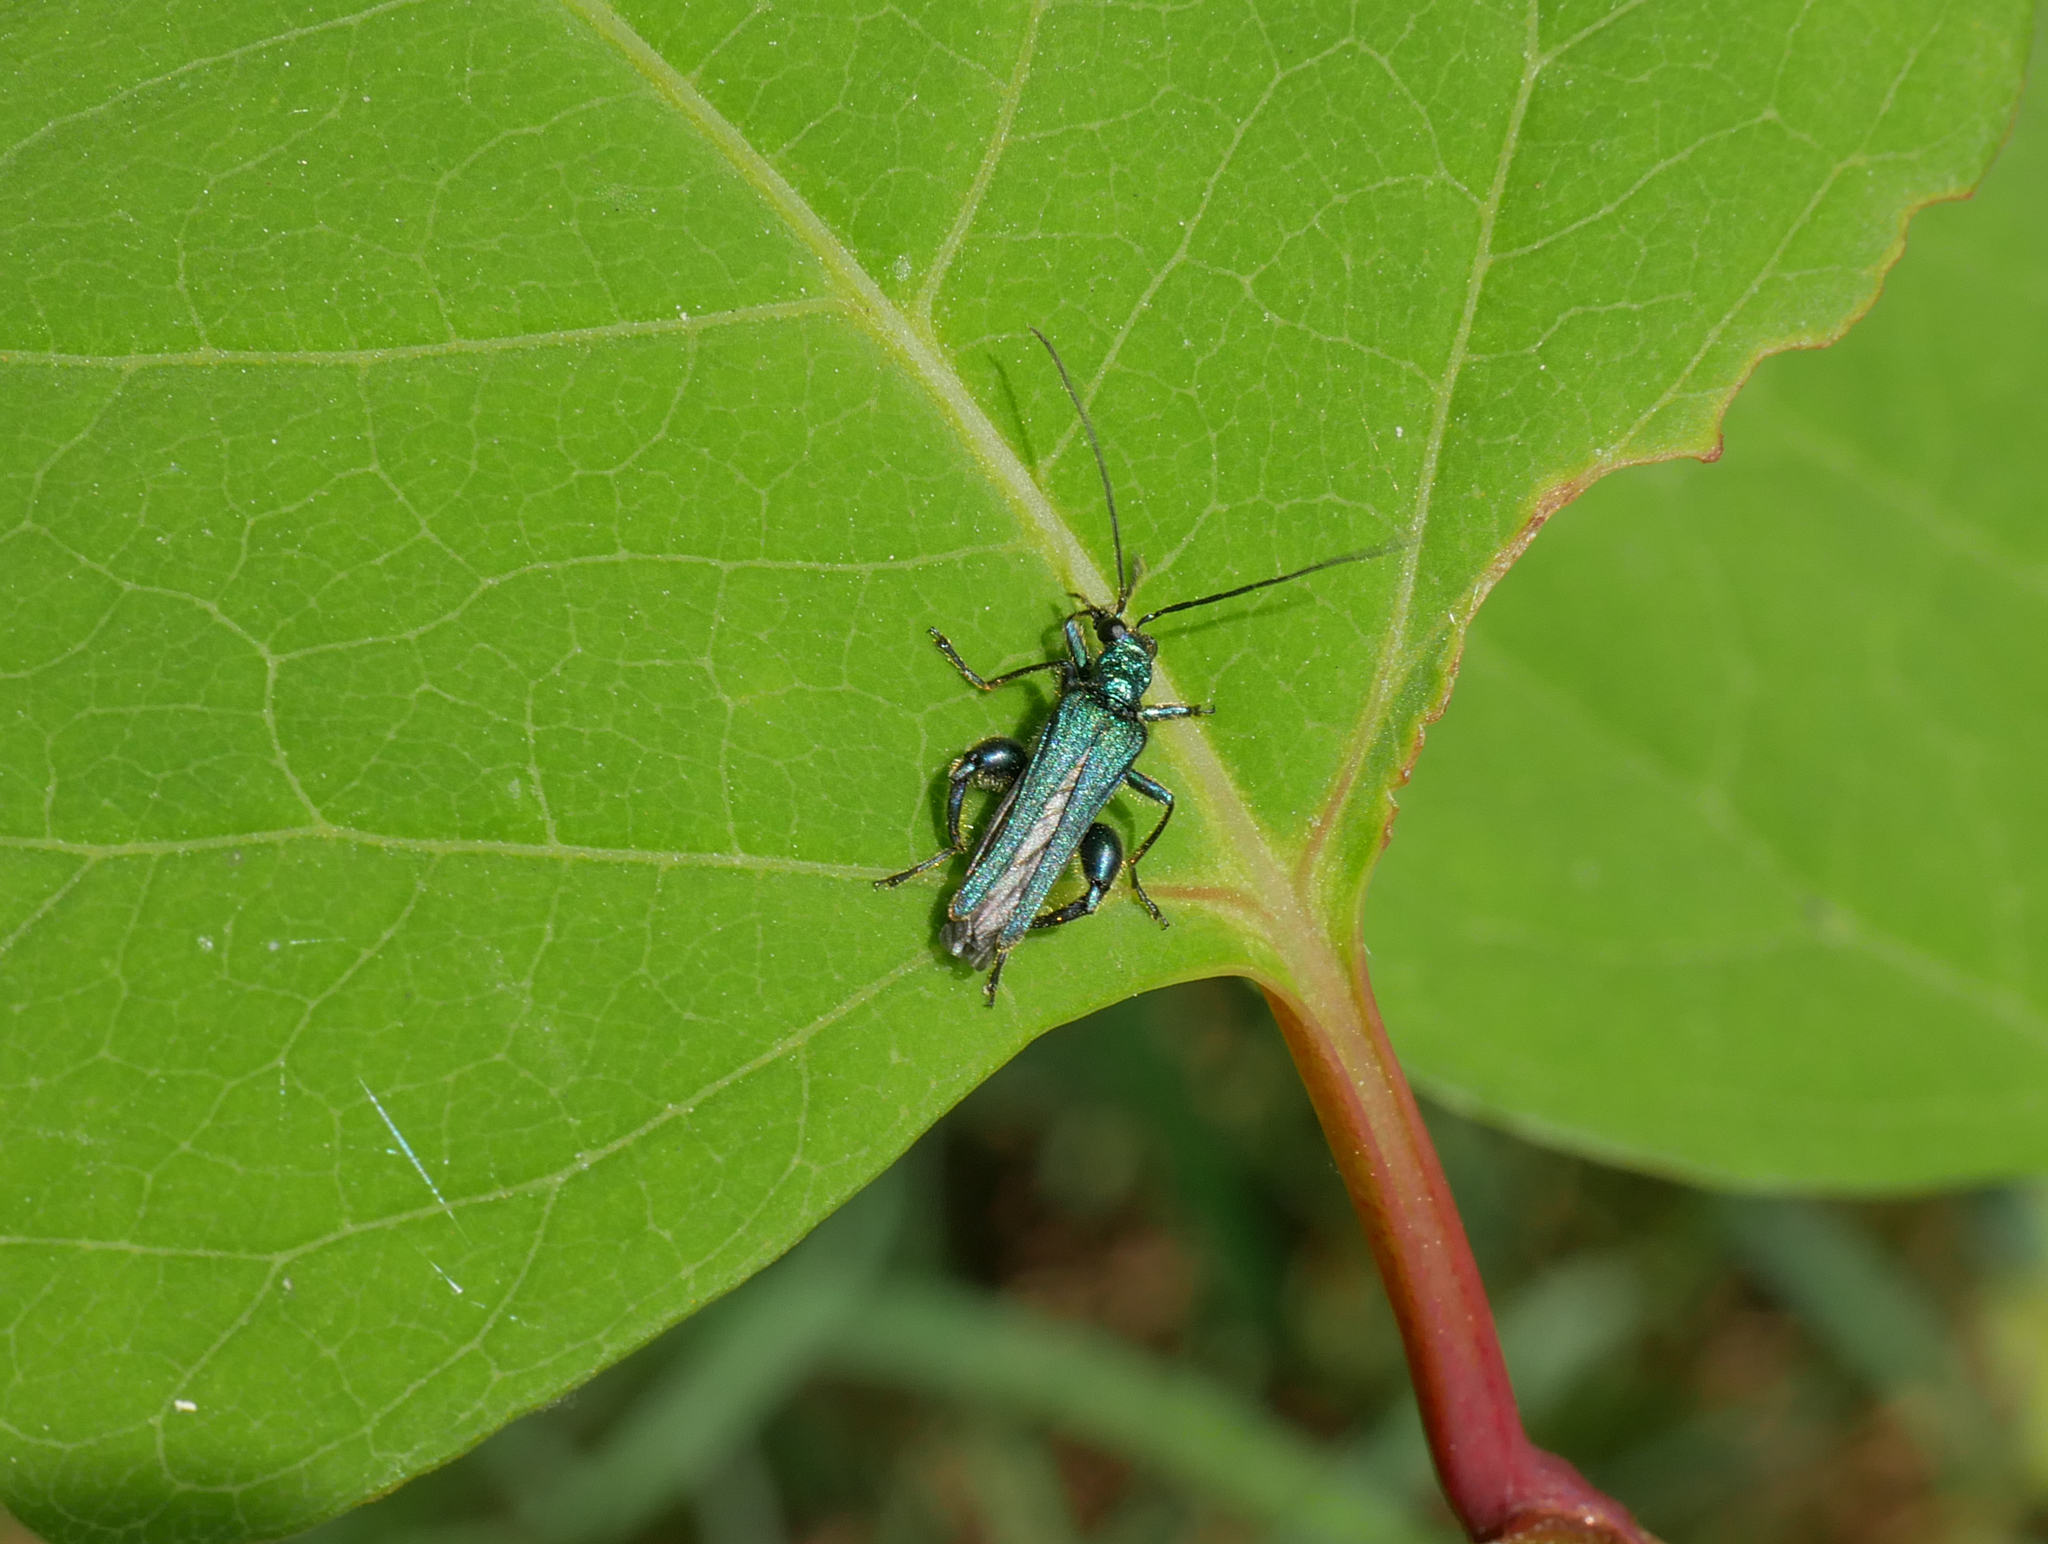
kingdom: Animalia
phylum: Arthropoda
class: Insecta
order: Coleoptera
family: Oedemeridae
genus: Oedemera
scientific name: Oedemera nobilis
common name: Swollen-thighed beetle
